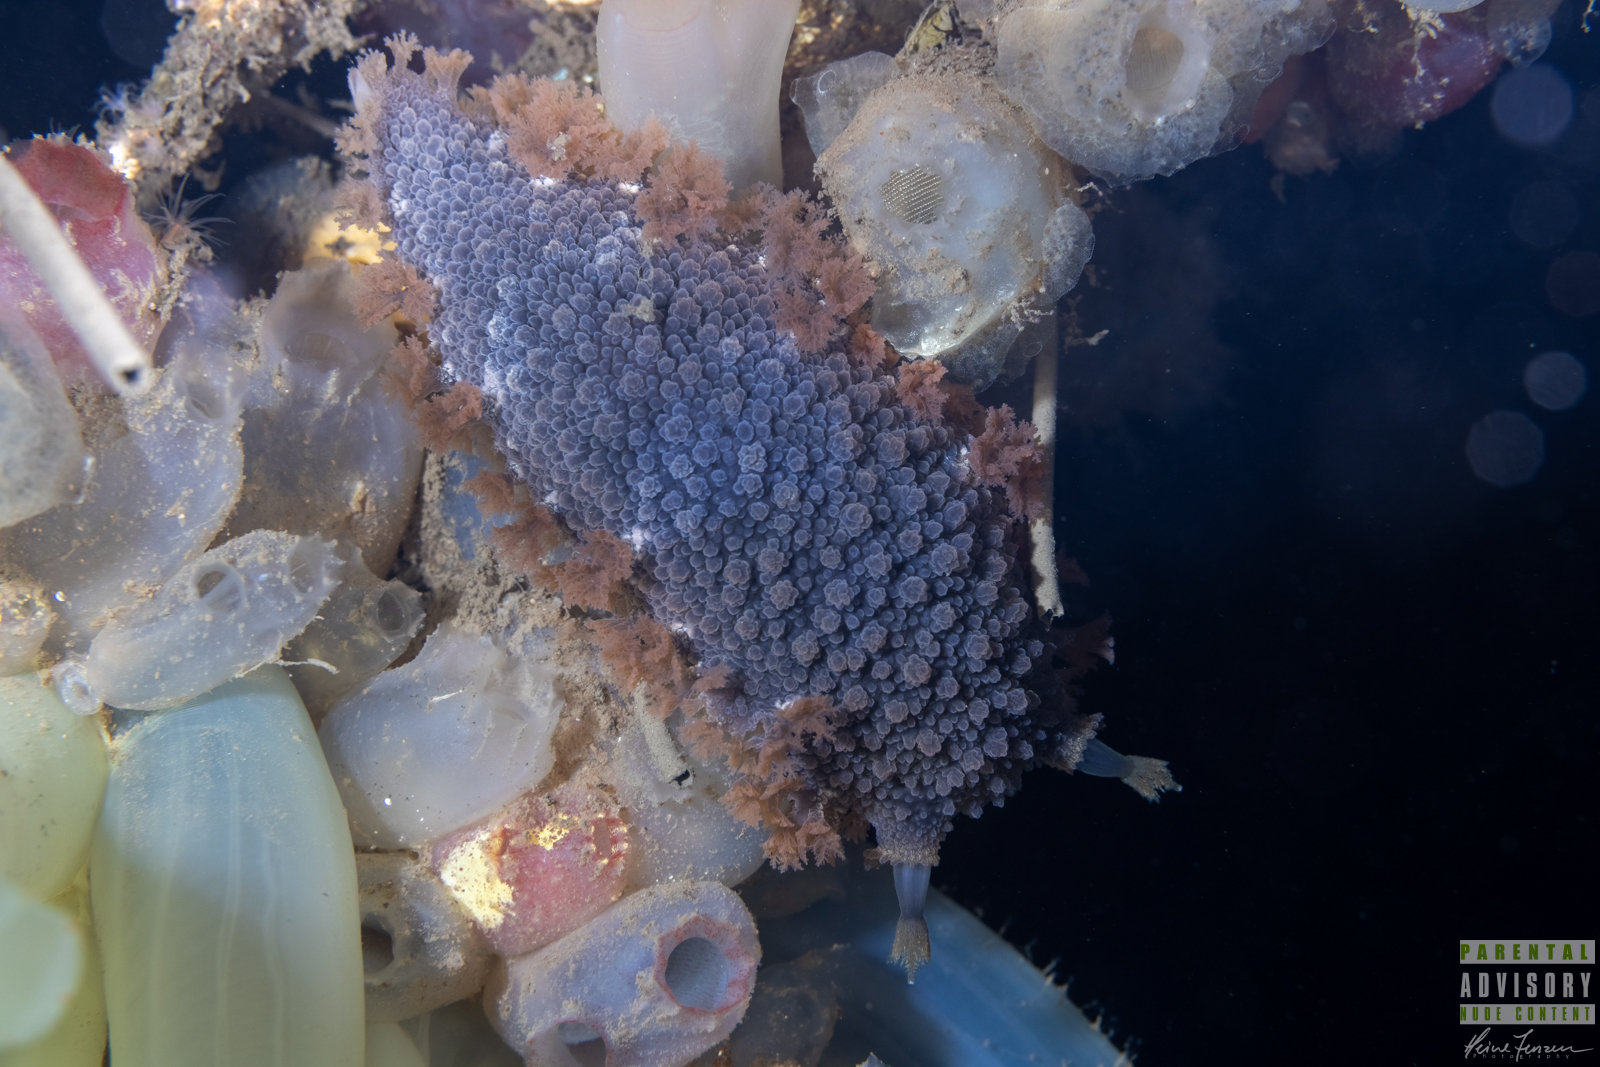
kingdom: Animalia
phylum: Mollusca
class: Gastropoda
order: Nudibranchia
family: Tritoniidae
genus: Tritonia
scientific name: Tritonia hombergii
